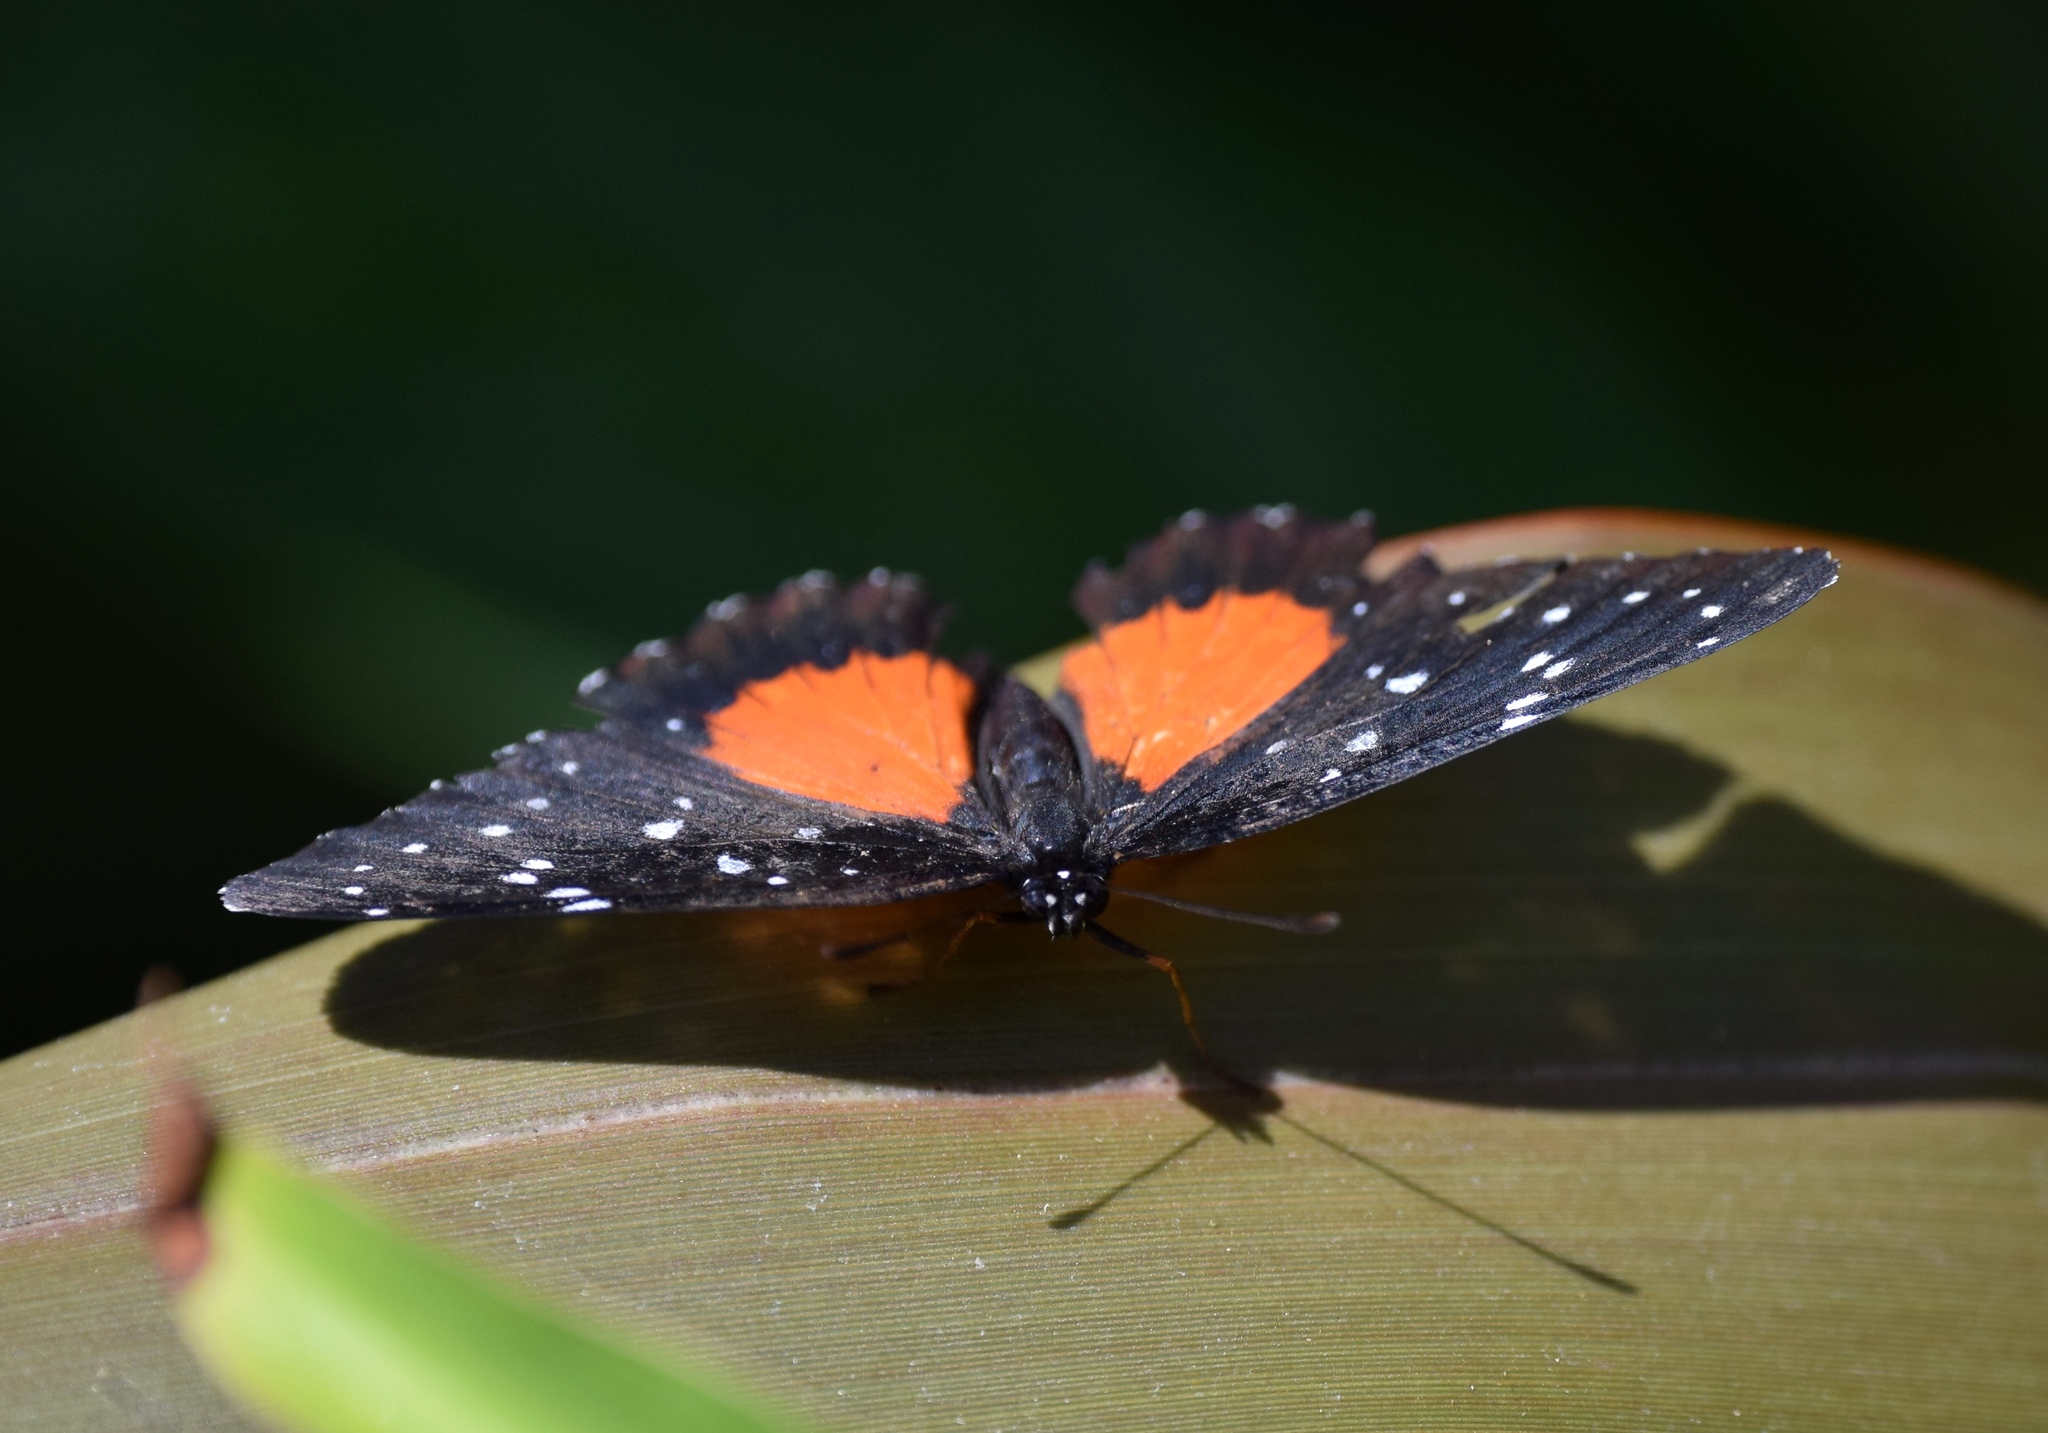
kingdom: Animalia
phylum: Arthropoda
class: Insecta
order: Lepidoptera
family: Nymphalidae
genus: Chlosyne
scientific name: Chlosyne janais
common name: Crimson patch
